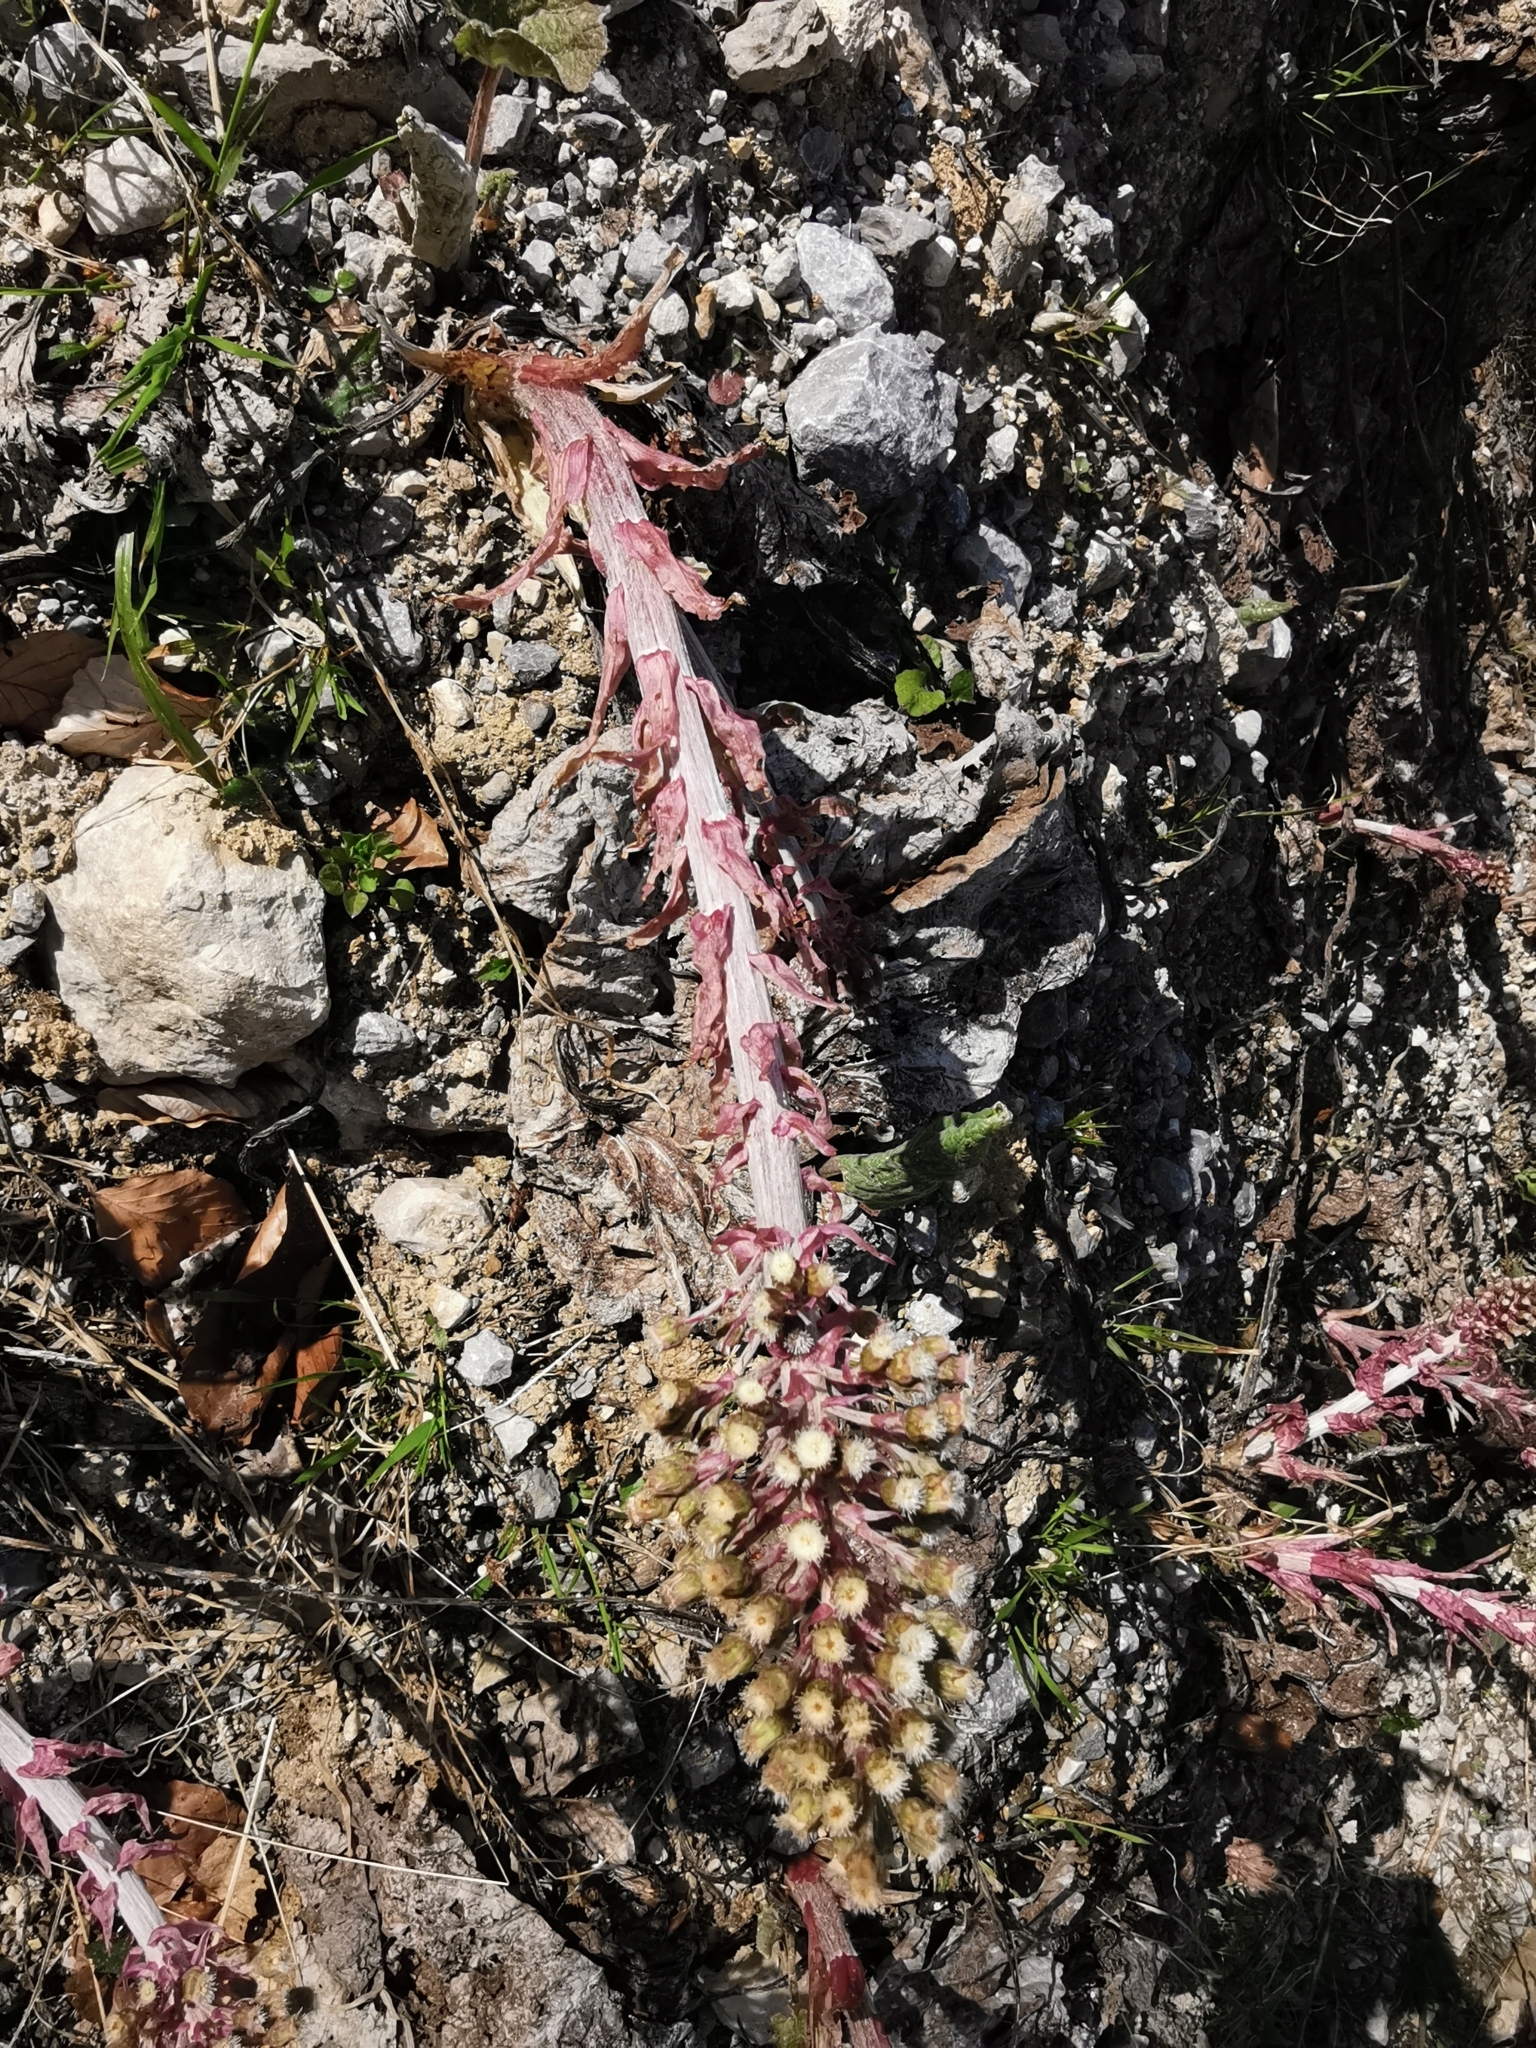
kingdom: Plantae
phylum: Tracheophyta
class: Magnoliopsida
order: Asterales
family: Asteraceae
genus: Petasites
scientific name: Petasites hybridus
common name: Butterbur
